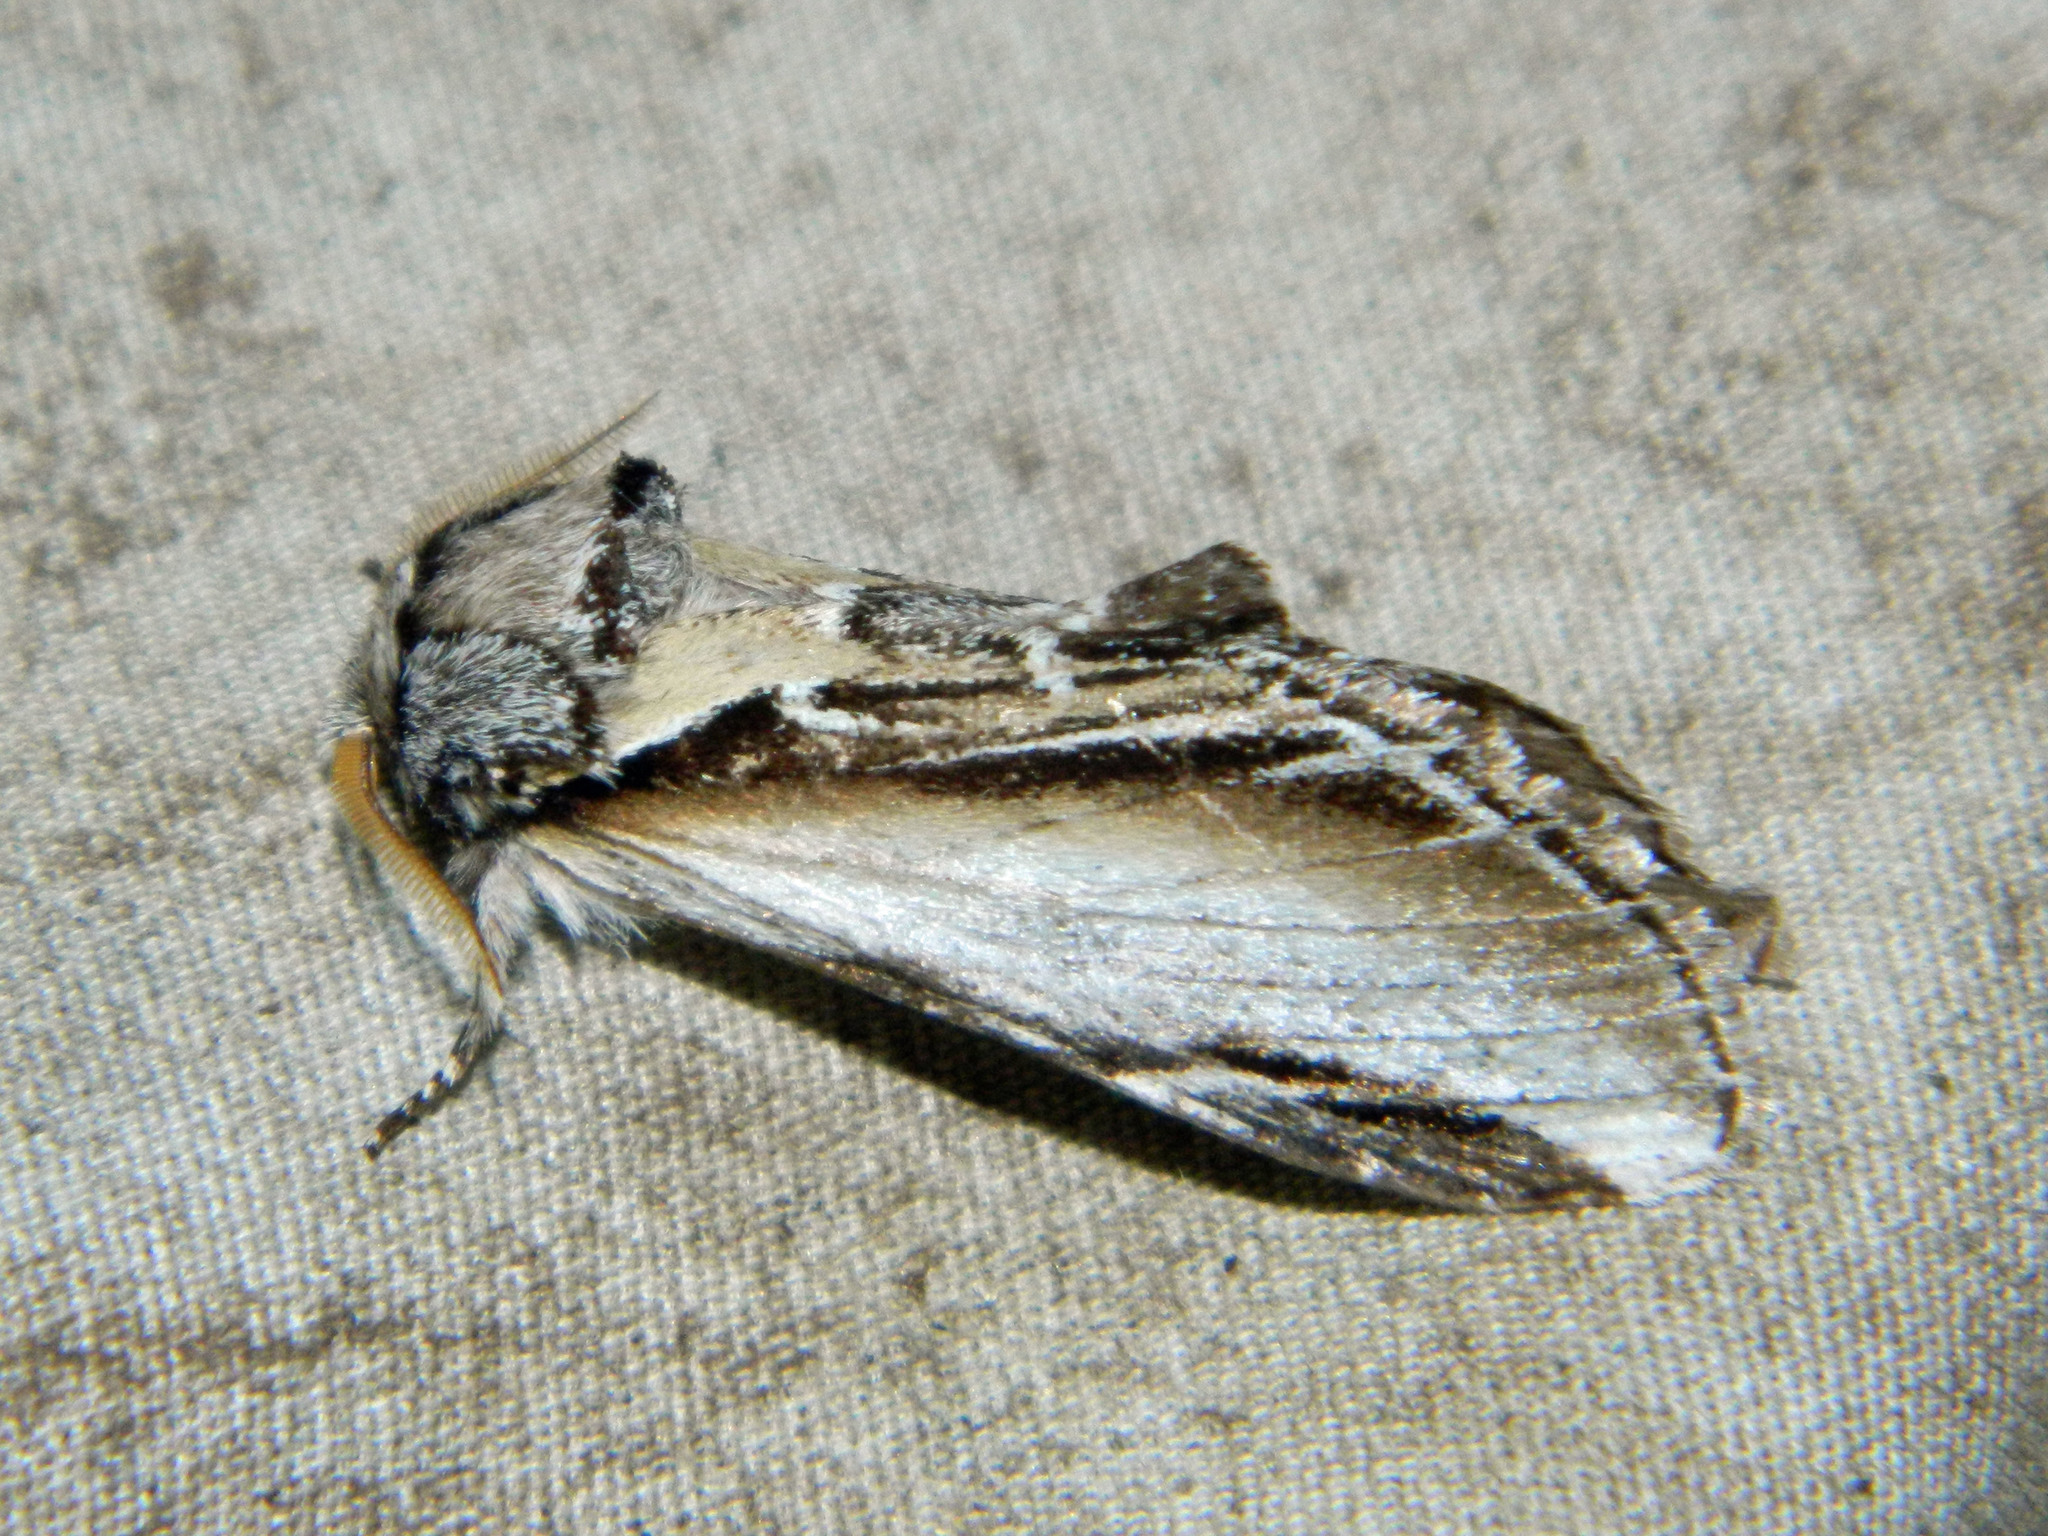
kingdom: Animalia
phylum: Arthropoda
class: Insecta
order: Lepidoptera
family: Notodontidae
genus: Pheosia
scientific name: Pheosia rimosa
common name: Black-rimmed prominent
